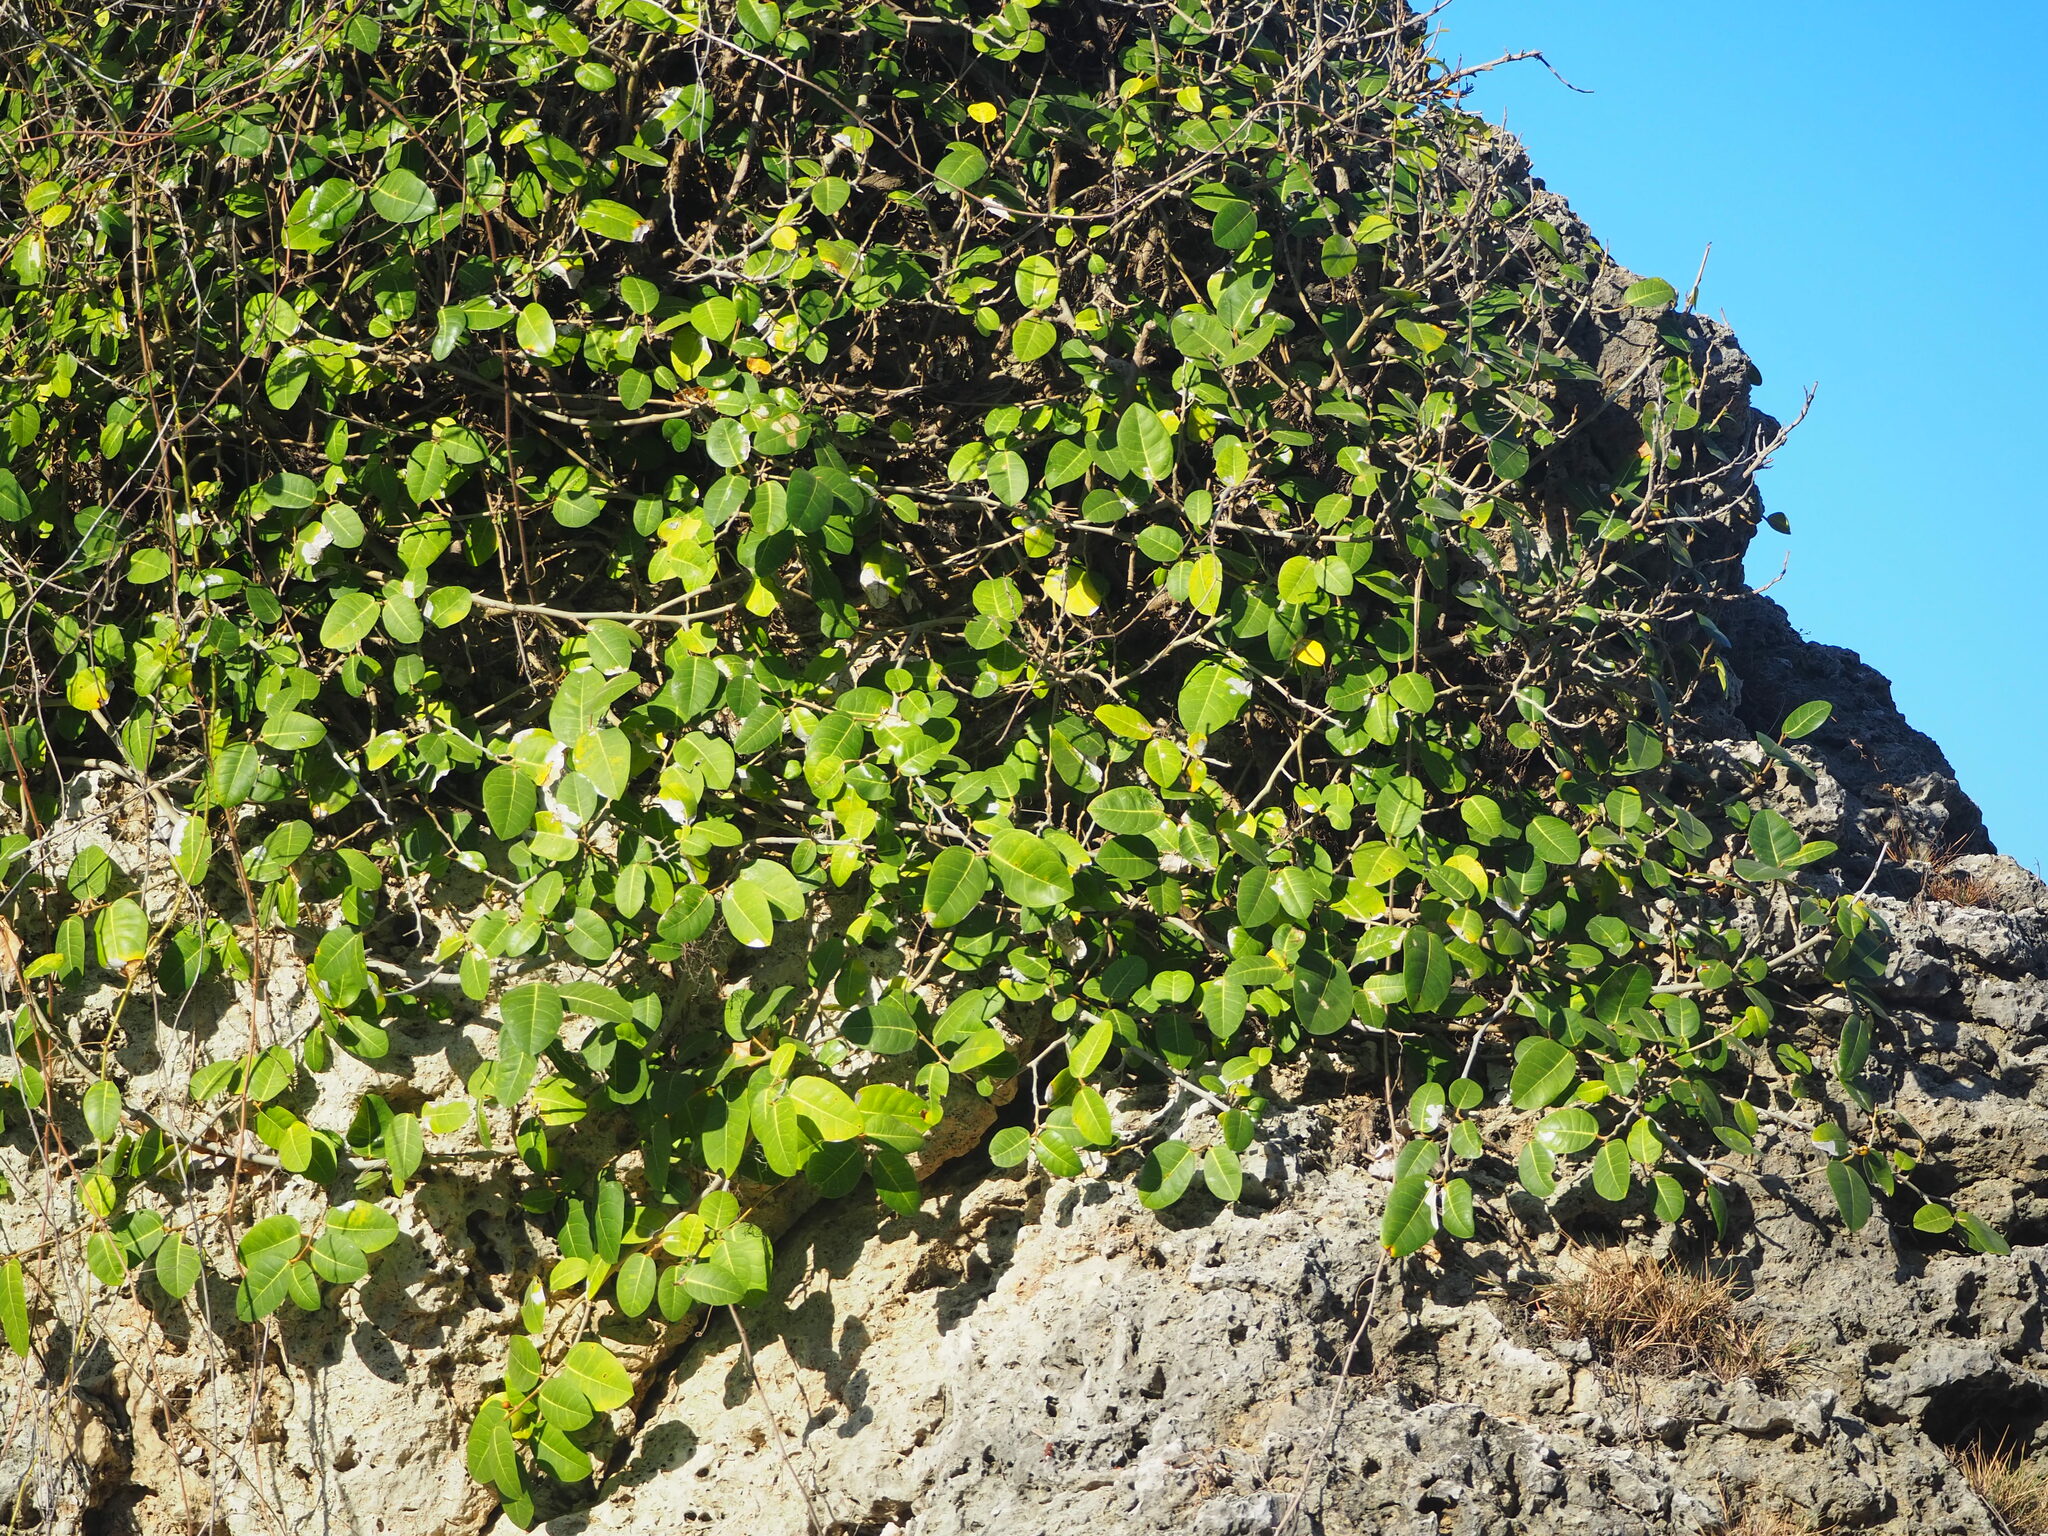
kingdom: Plantae
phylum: Tracheophyta
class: Magnoliopsida
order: Rosales
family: Moraceae
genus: Ficus
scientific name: Ficus tinctoria
